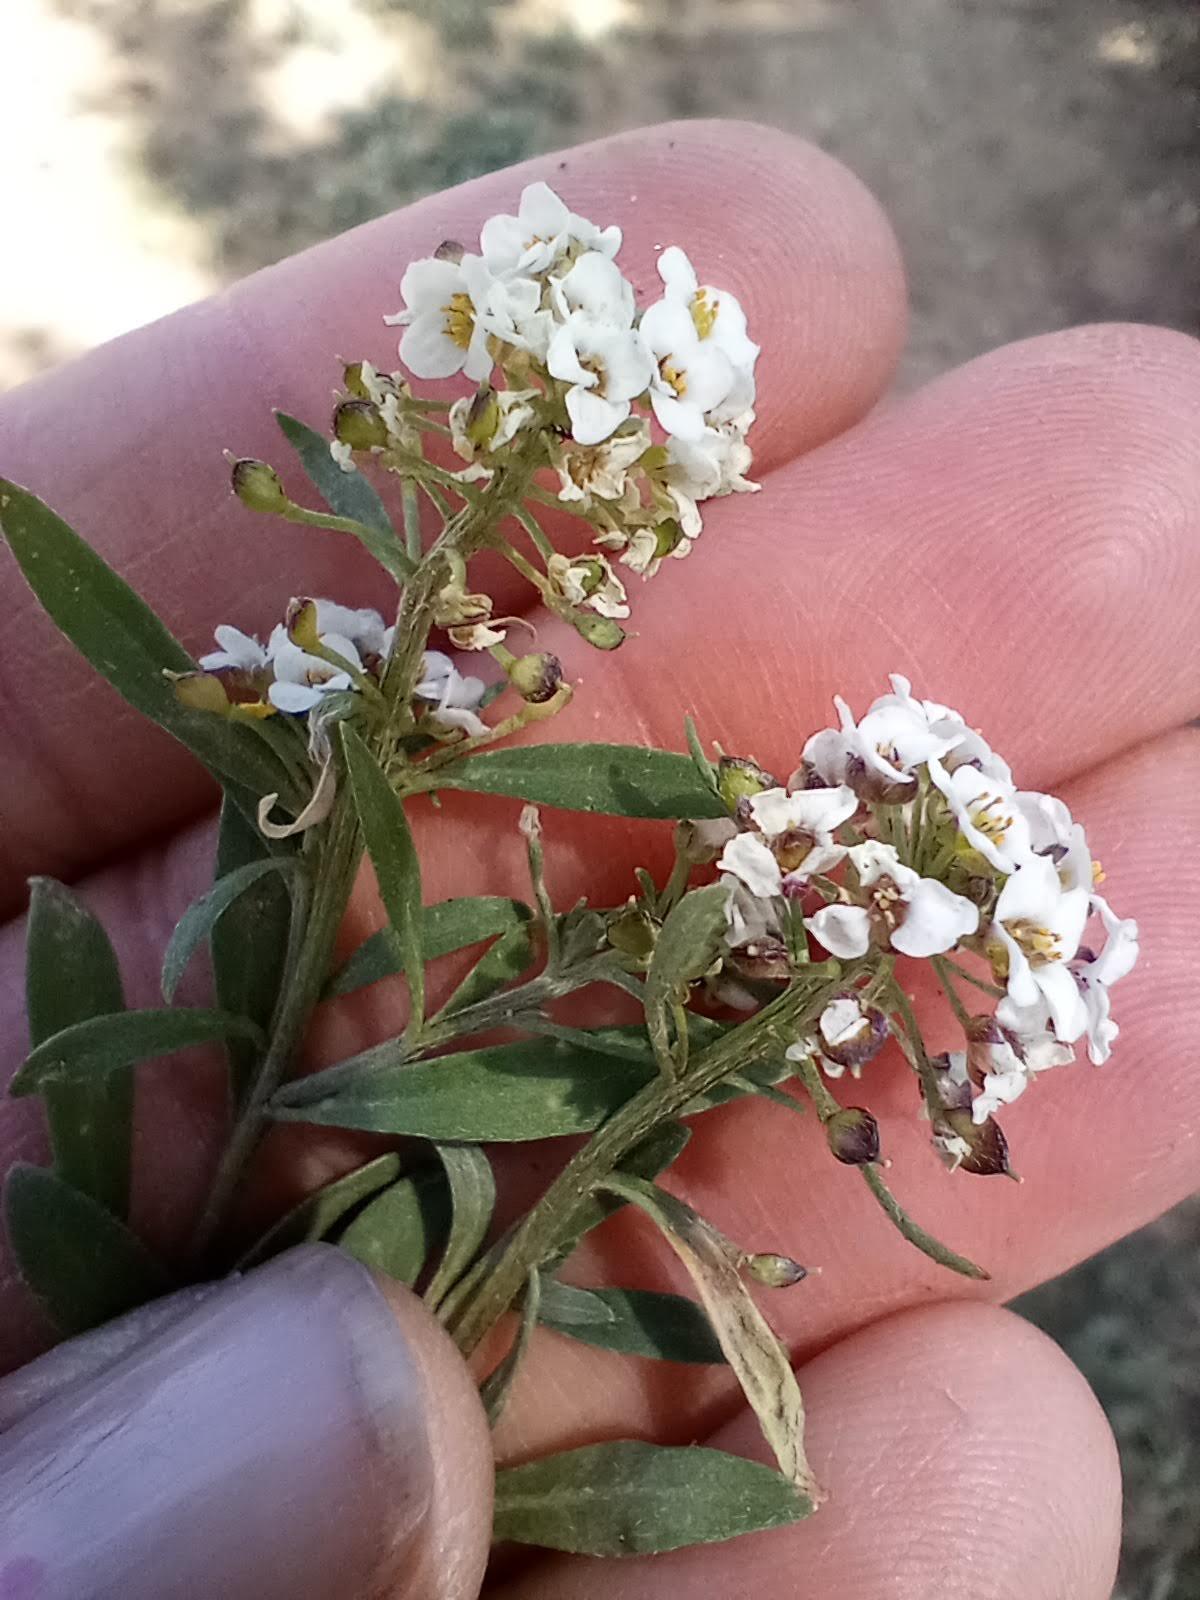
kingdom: Plantae
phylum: Tracheophyta
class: Magnoliopsida
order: Brassicales
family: Brassicaceae
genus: Lobularia
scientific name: Lobularia maritima
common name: Sweet alison
